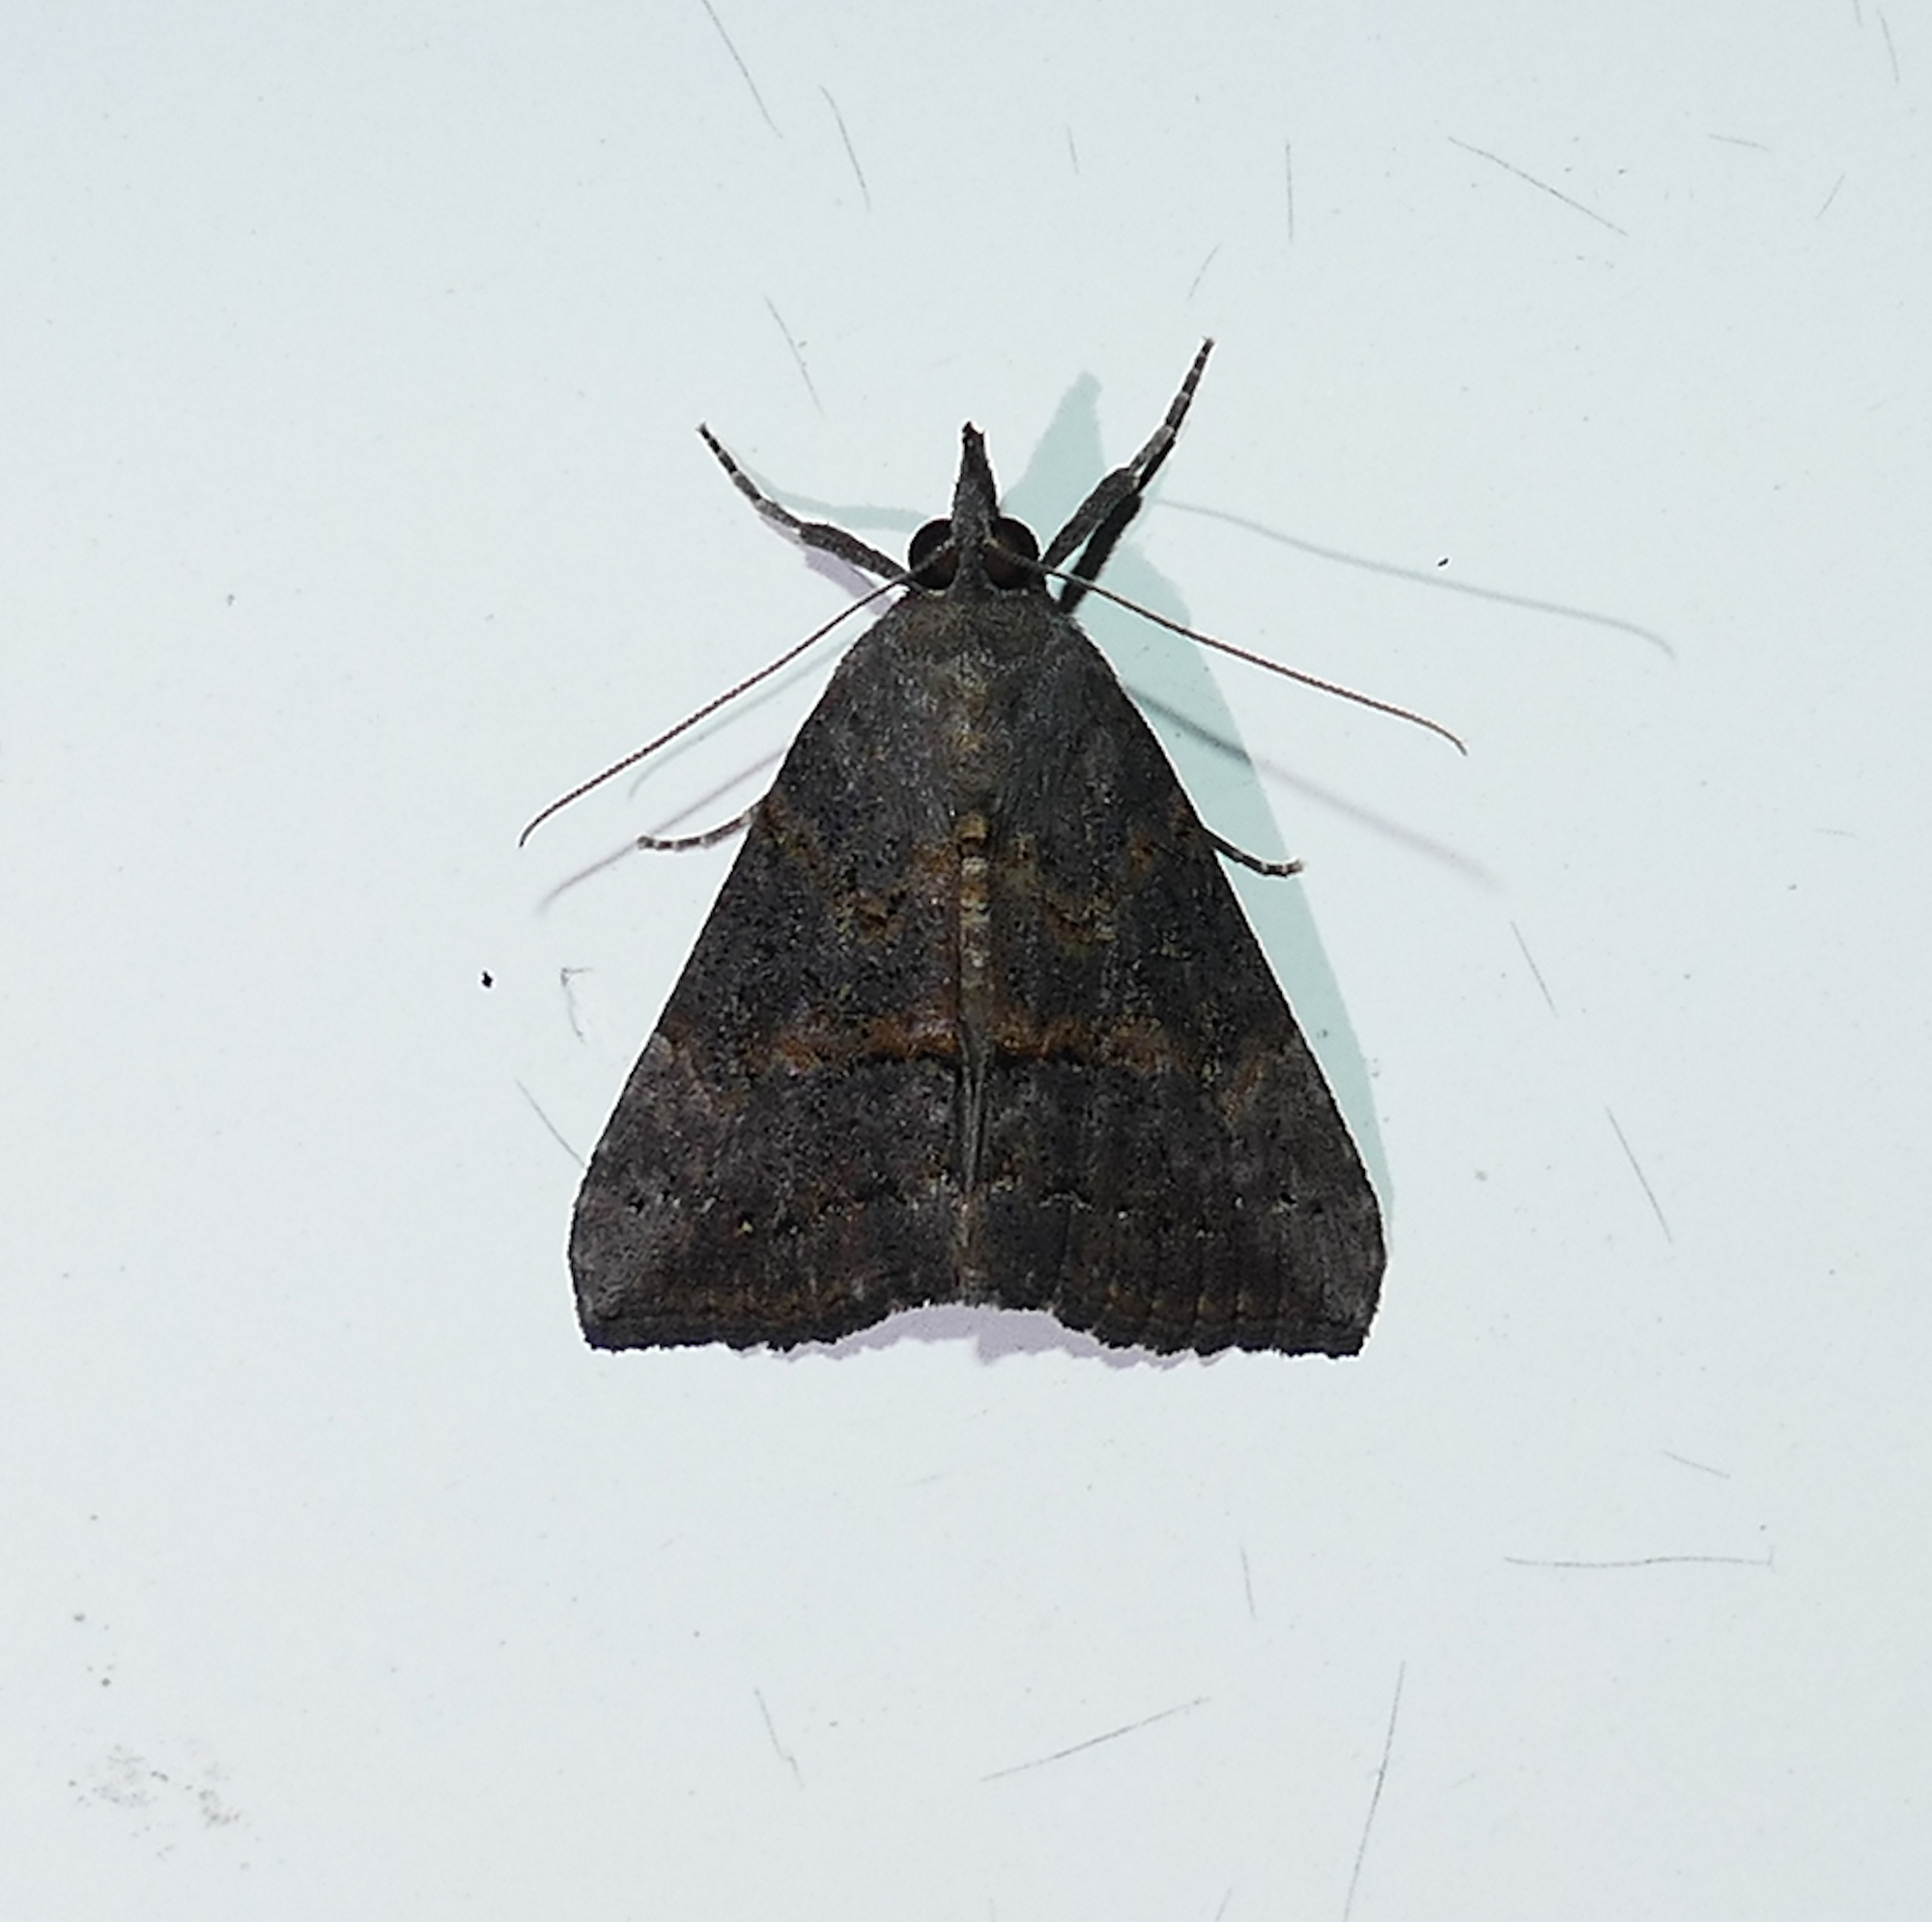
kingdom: Animalia
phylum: Arthropoda
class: Insecta
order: Lepidoptera
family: Erebidae
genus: Hypena
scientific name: Hypena scabra
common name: Green cloverworm
